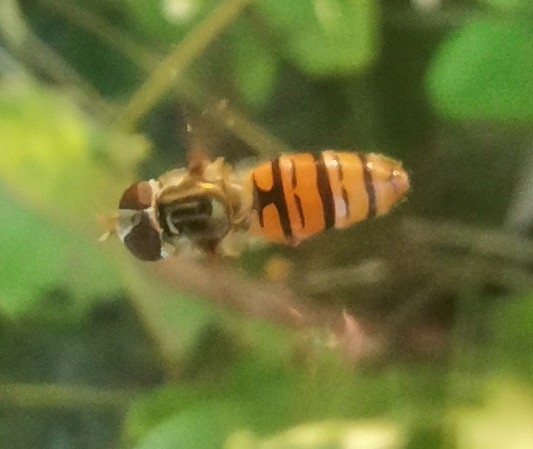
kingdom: Animalia
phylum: Arthropoda
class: Insecta
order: Diptera
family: Syrphidae
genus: Episyrphus
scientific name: Episyrphus balteatus
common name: Marmalade hoverfly
